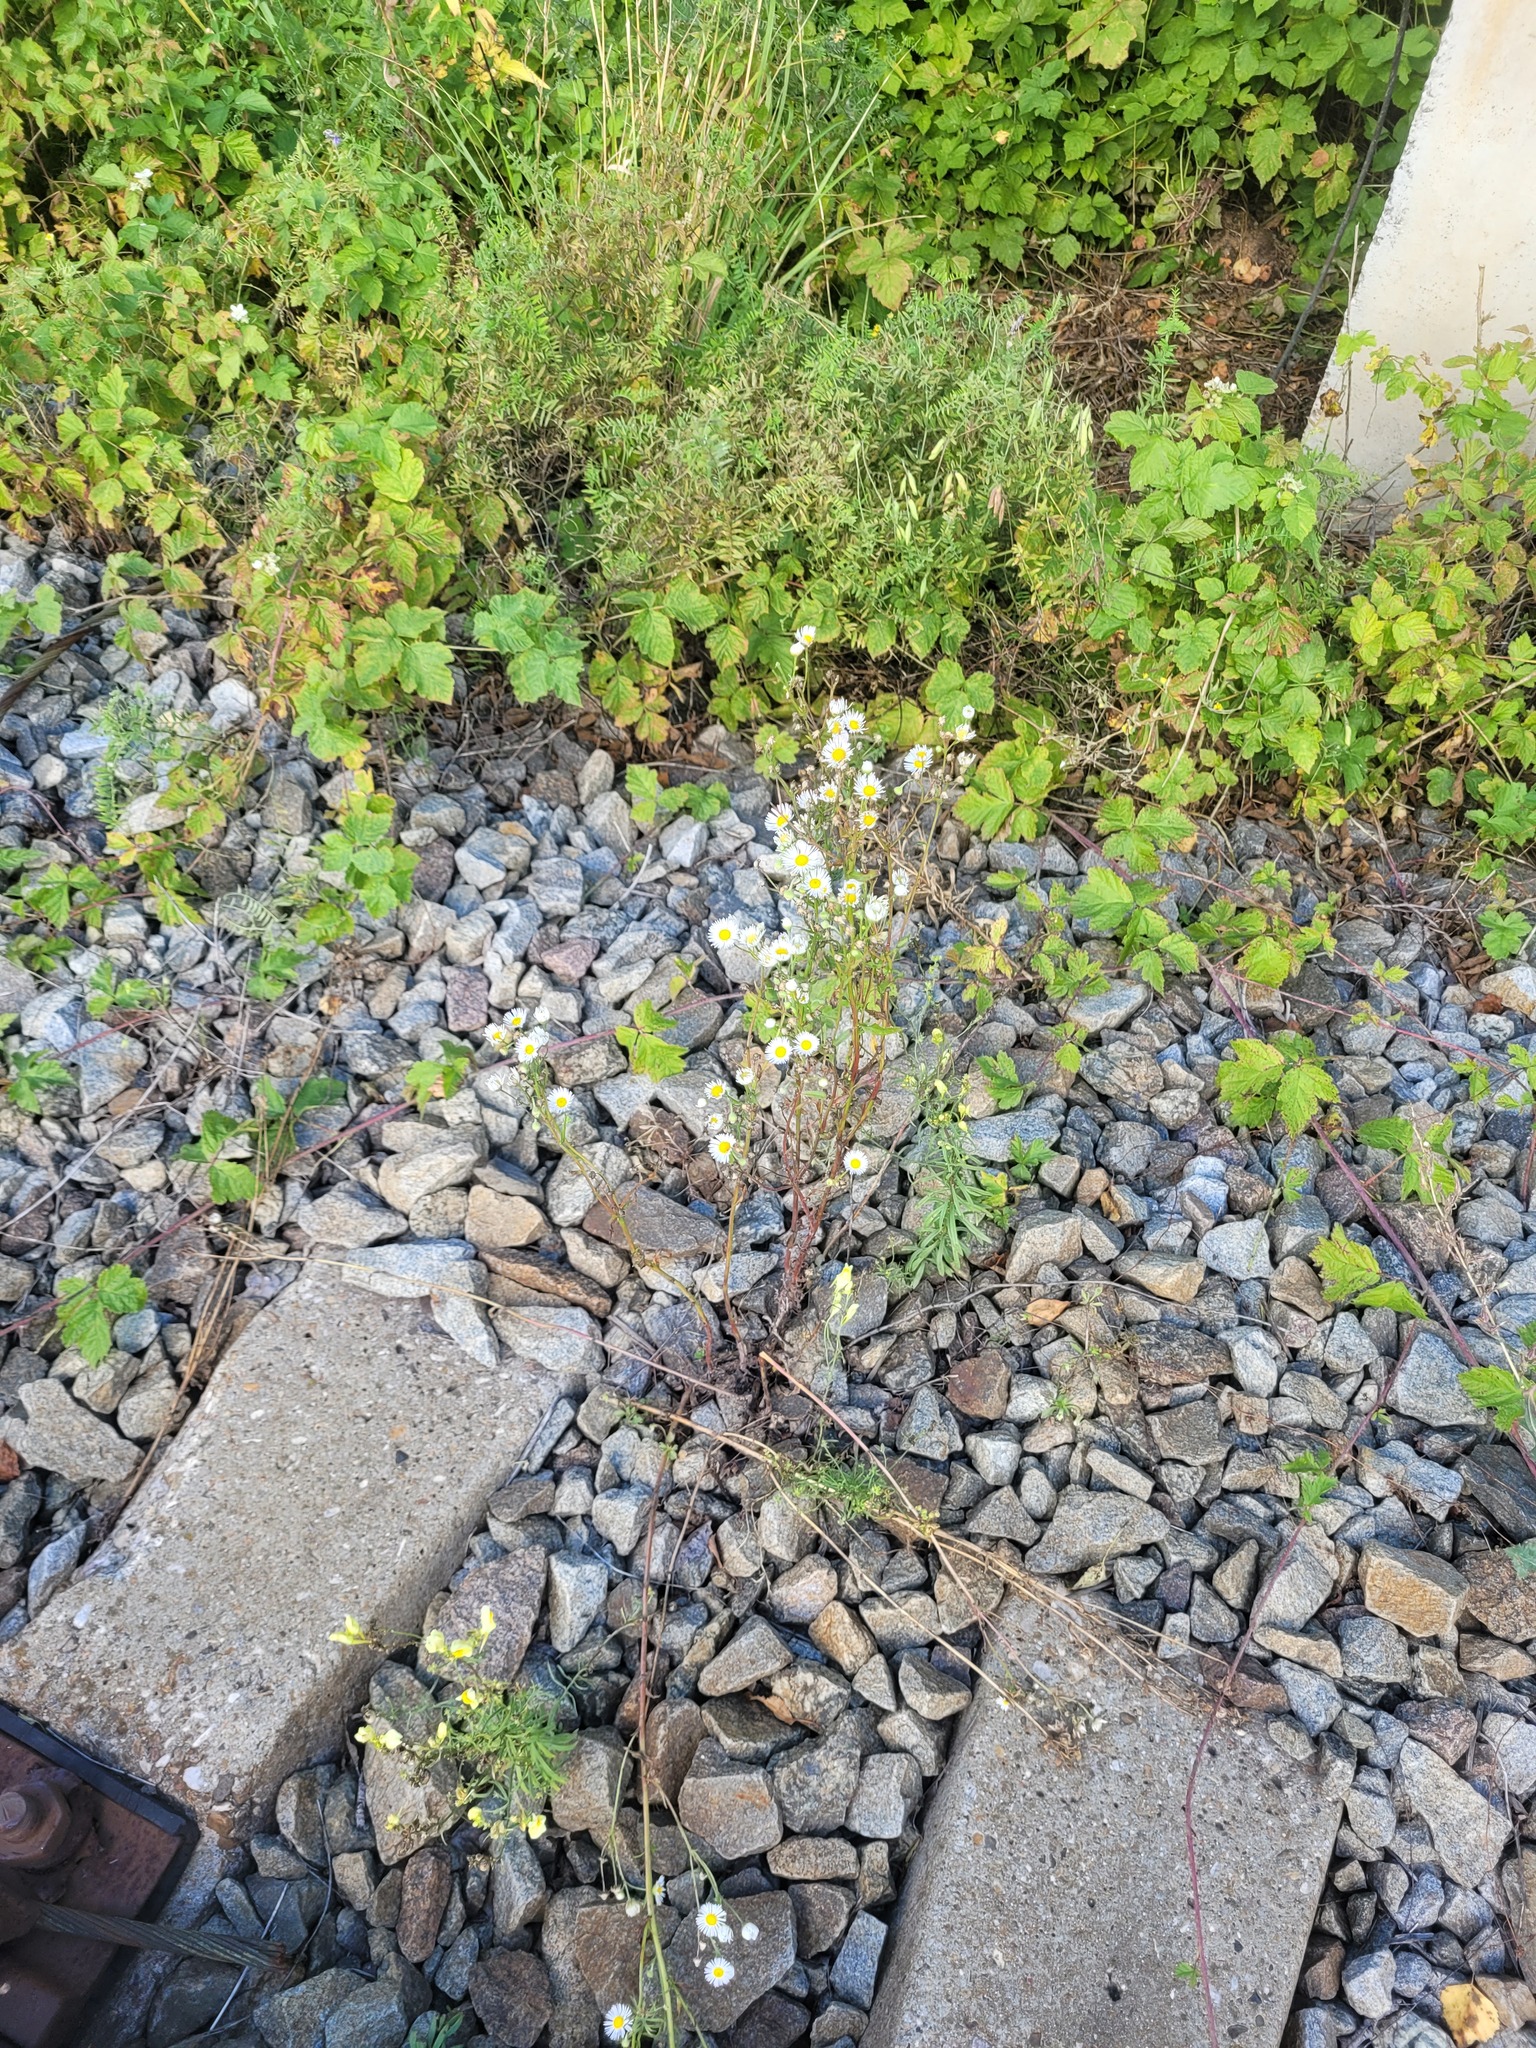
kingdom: Plantae
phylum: Tracheophyta
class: Magnoliopsida
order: Asterales
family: Asteraceae
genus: Erigeron
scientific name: Erigeron annuus
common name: Tall fleabane
